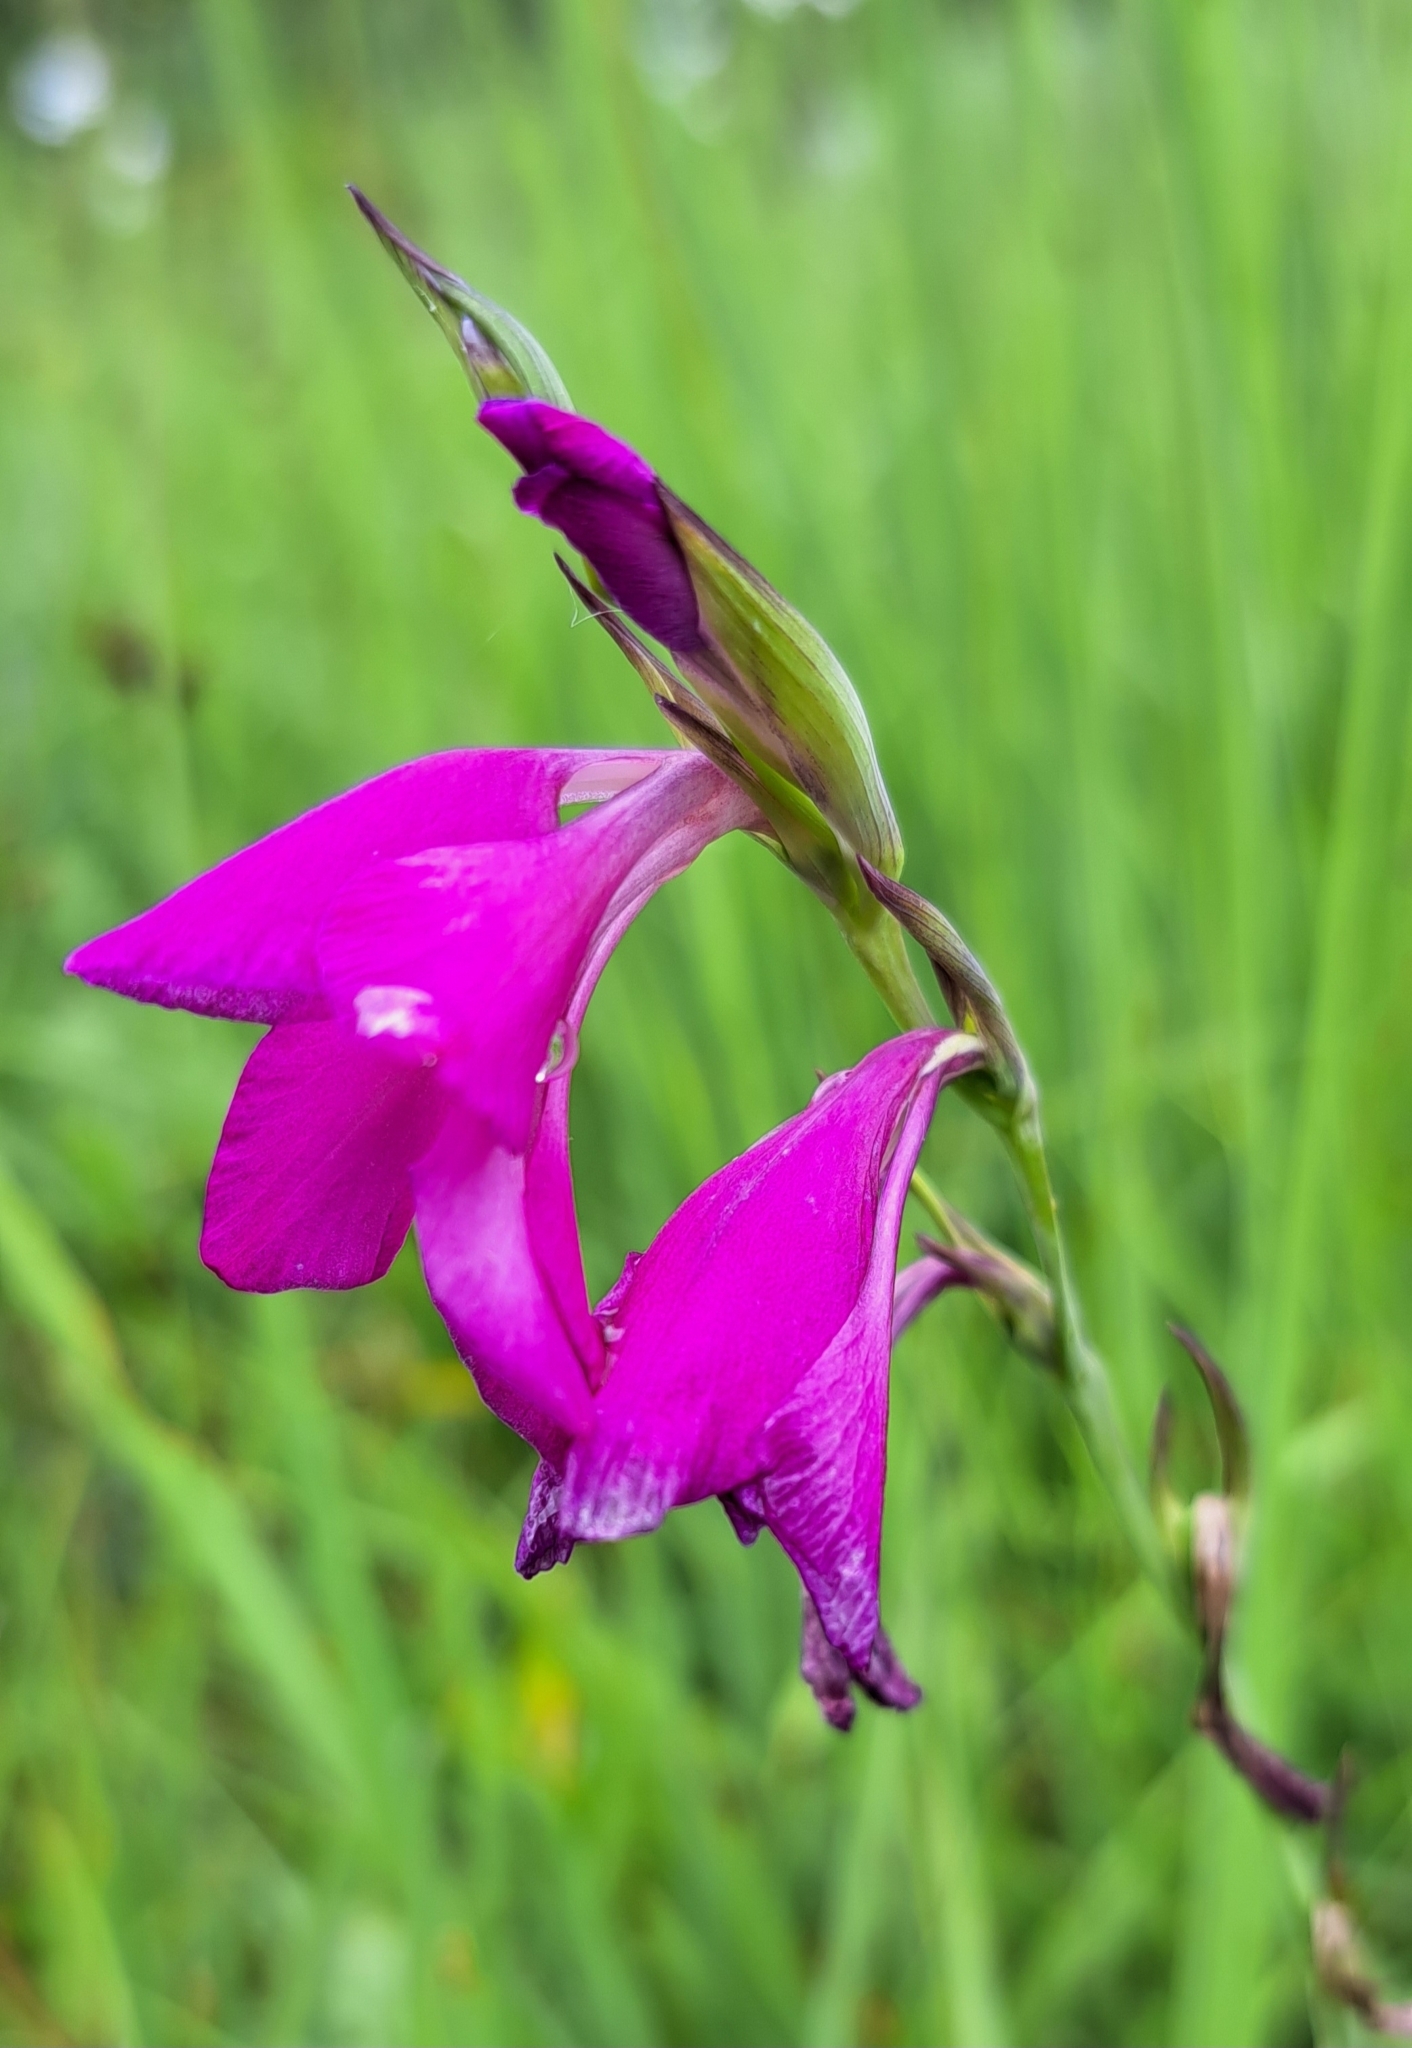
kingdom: Plantae
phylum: Tracheophyta
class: Liliopsida
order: Asparagales
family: Iridaceae
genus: Gladiolus
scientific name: Gladiolus palustris
